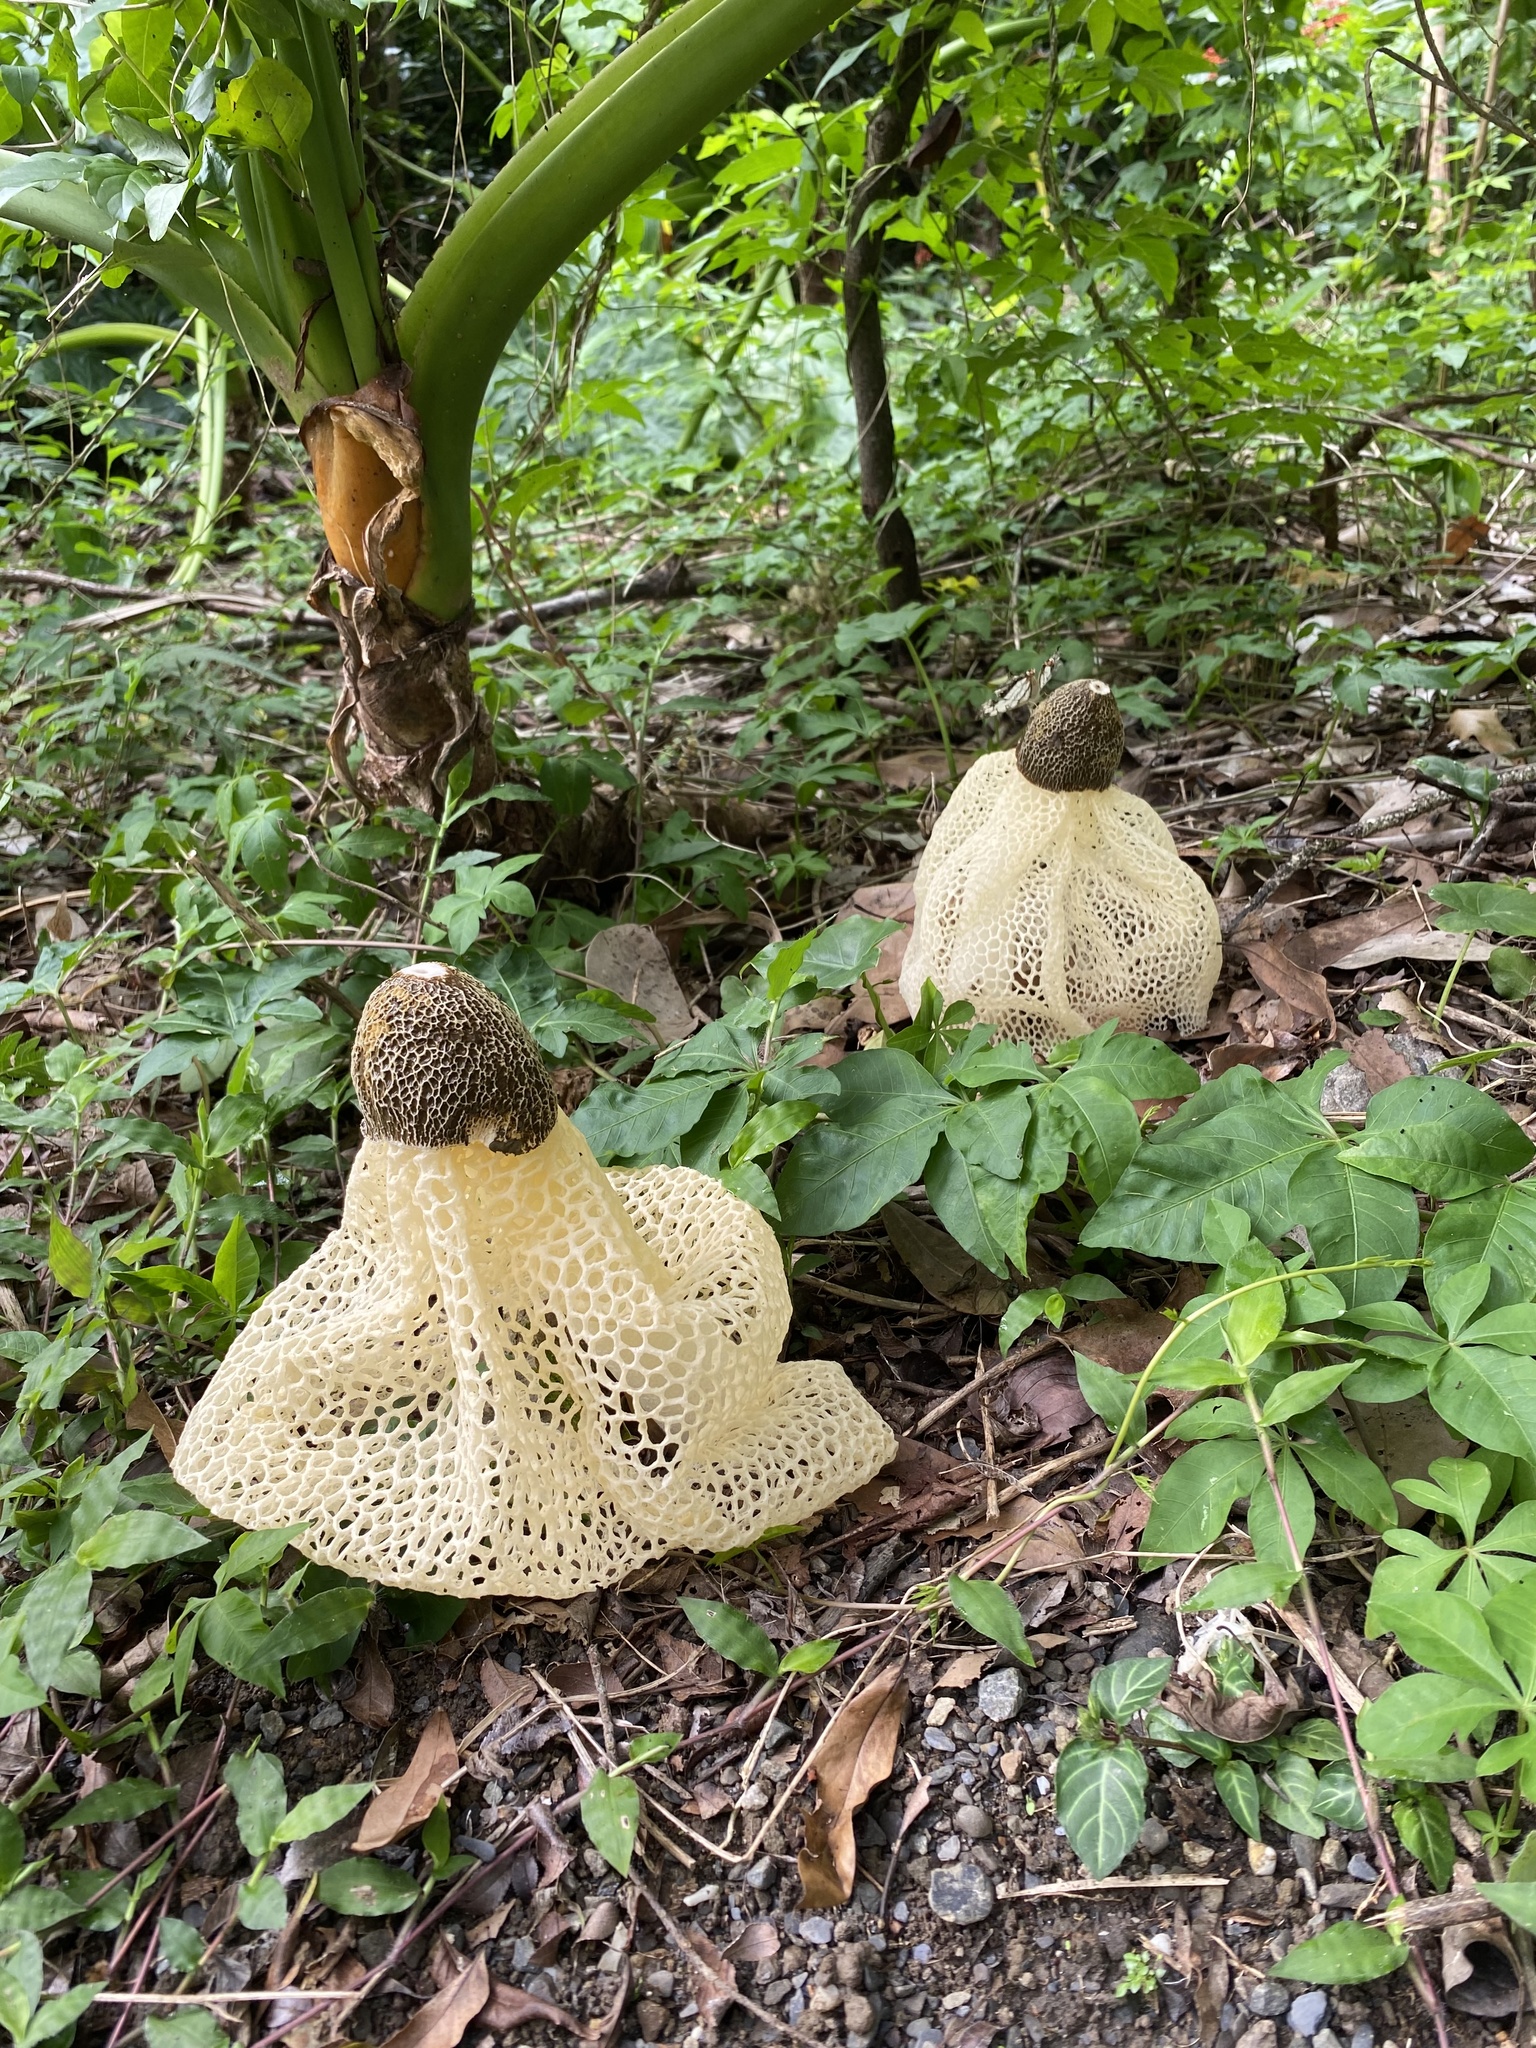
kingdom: Fungi
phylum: Basidiomycota
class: Agaricomycetes
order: Phallales
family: Phallaceae
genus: Phallus
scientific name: Phallus lutescens
